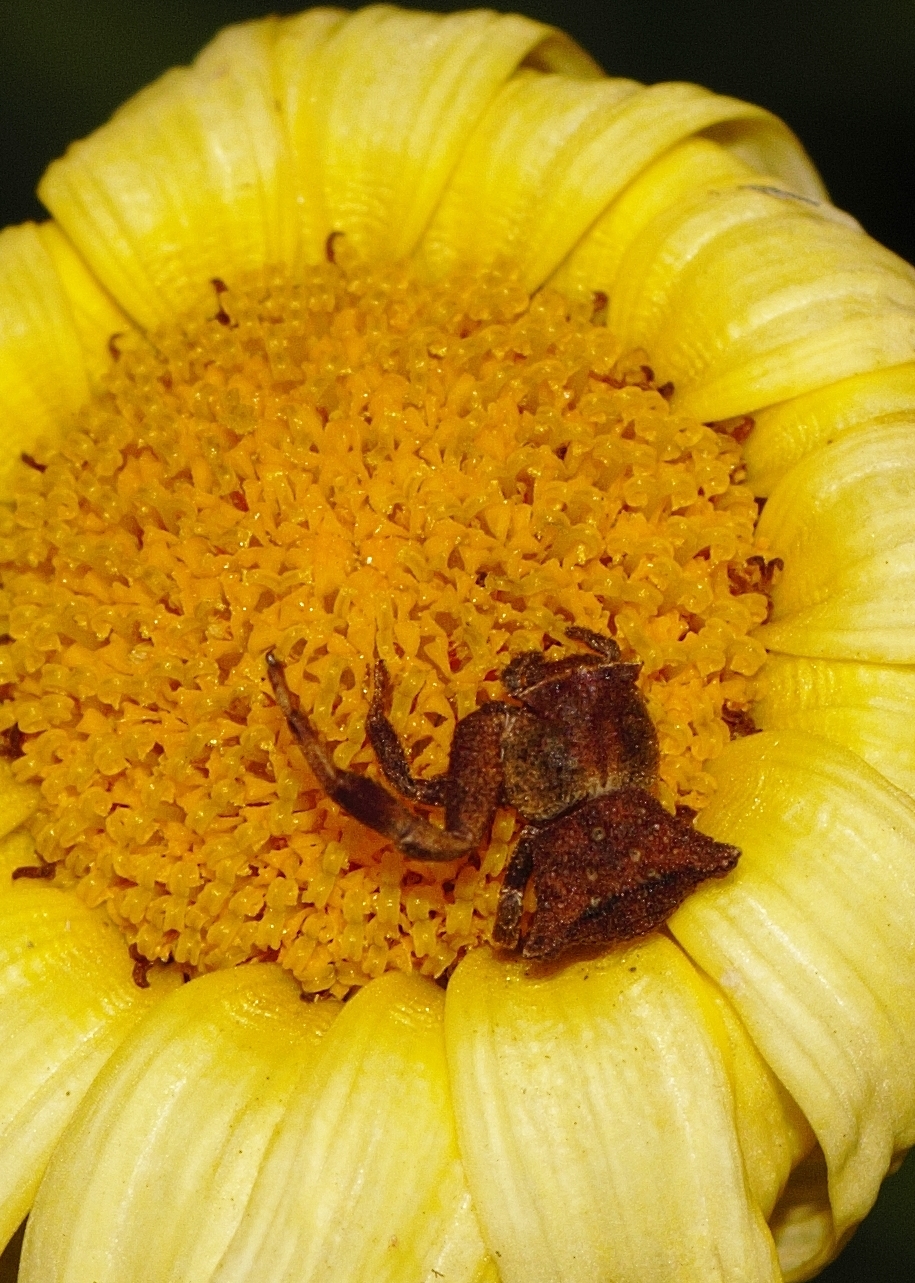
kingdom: Animalia
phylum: Arthropoda
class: Arachnida
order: Araneae
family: Thomisidae
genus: Thomisus
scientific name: Thomisus scrupeus
